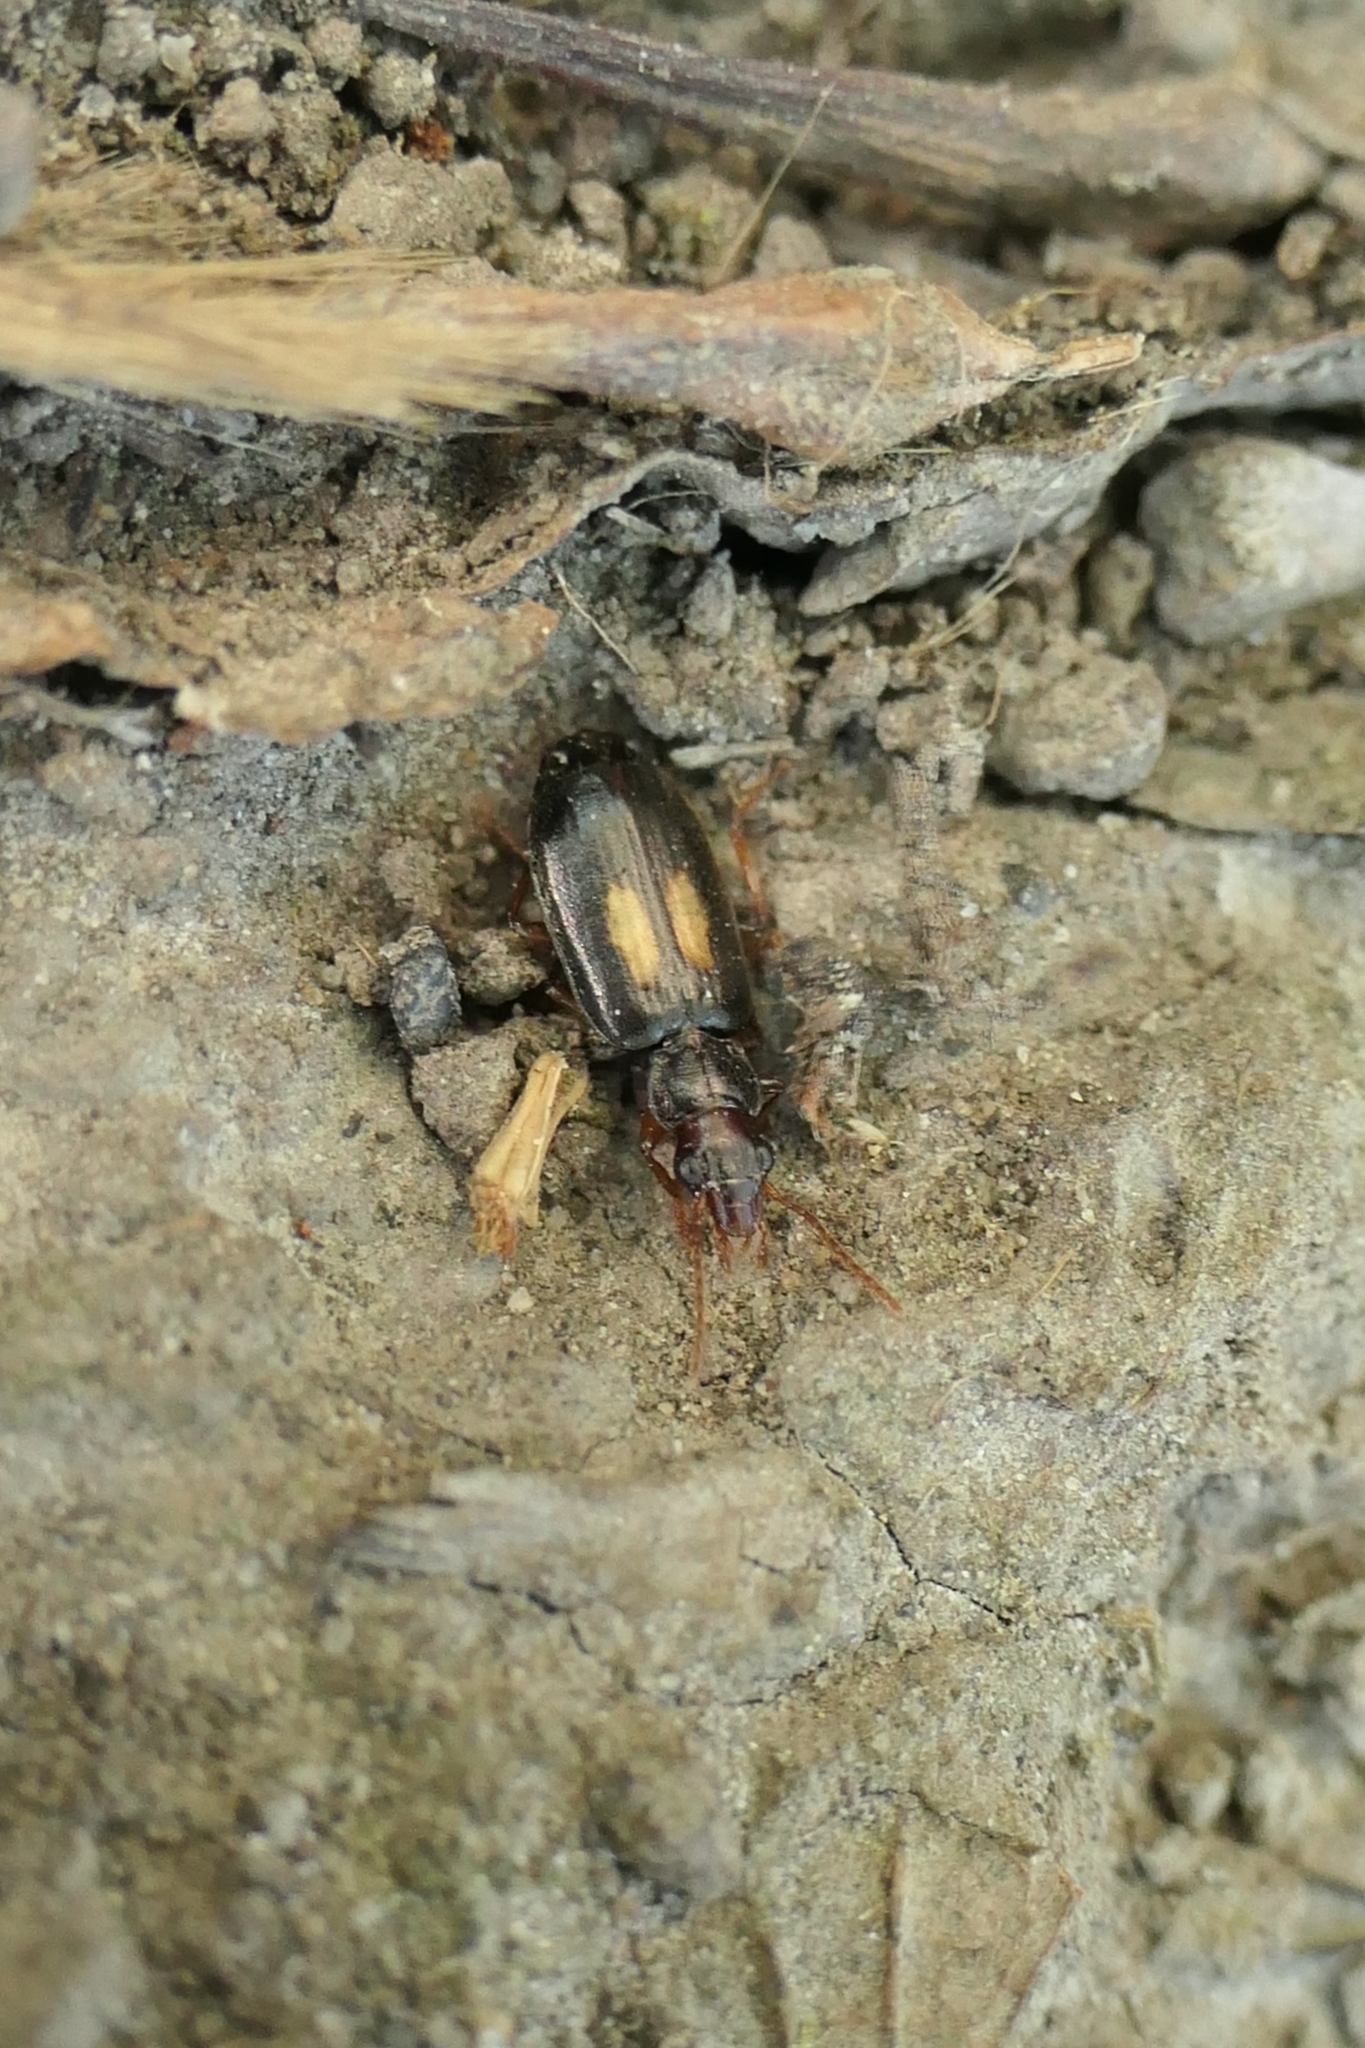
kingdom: Animalia
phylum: Arthropoda
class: Insecta
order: Coleoptera
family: Carabidae
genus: Agonocheila
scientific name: Agonocheila antipodum
